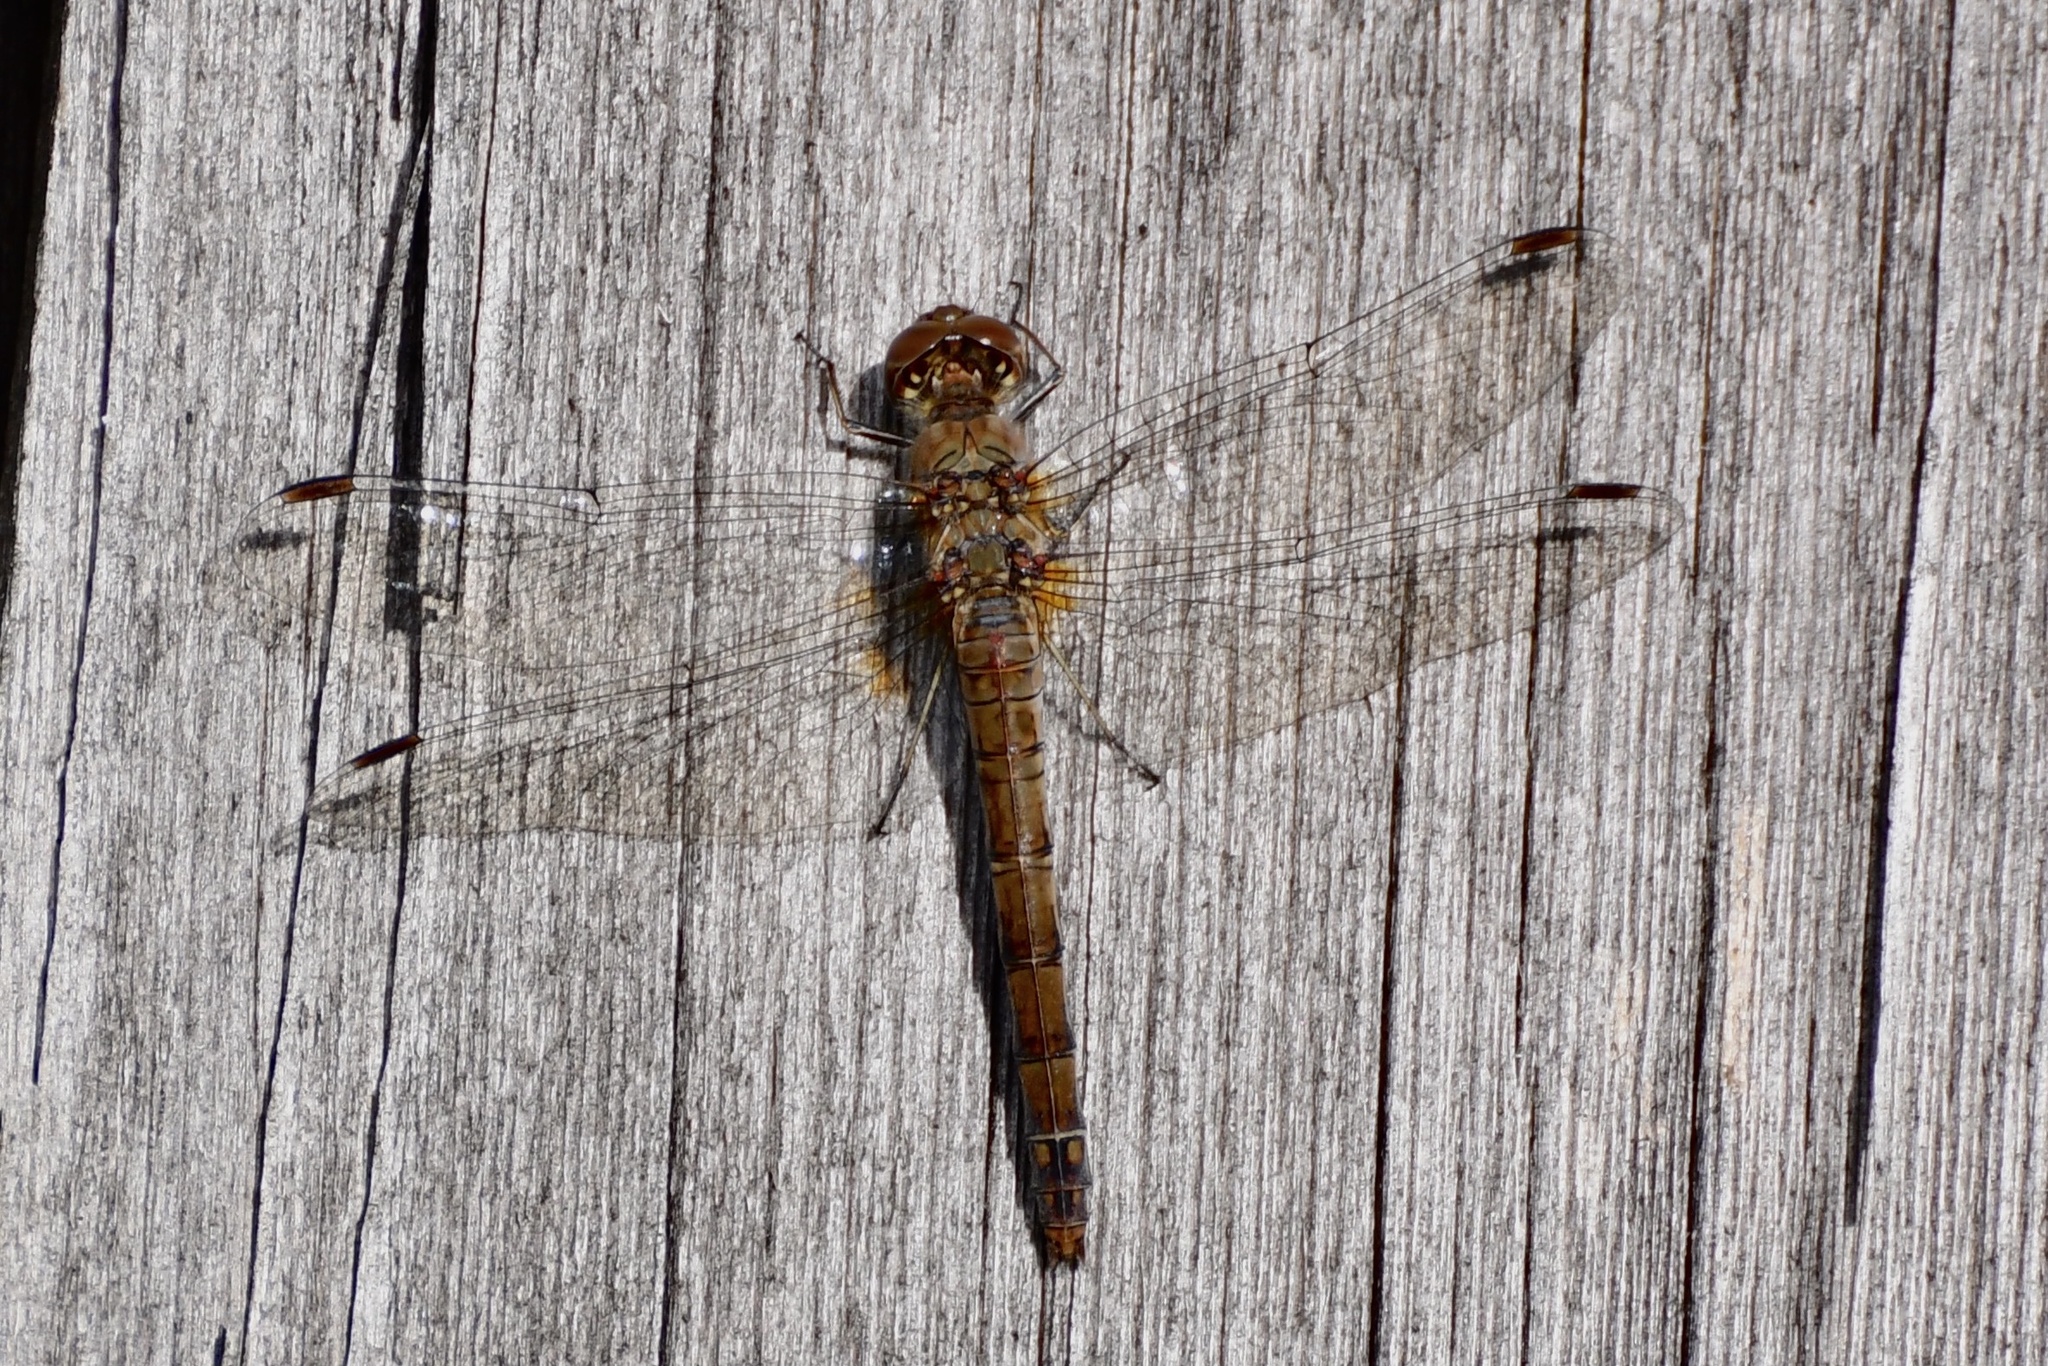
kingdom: Animalia
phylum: Arthropoda
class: Insecta
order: Odonata
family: Libellulidae
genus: Sympetrum
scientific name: Sympetrum striolatum
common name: Common darter
